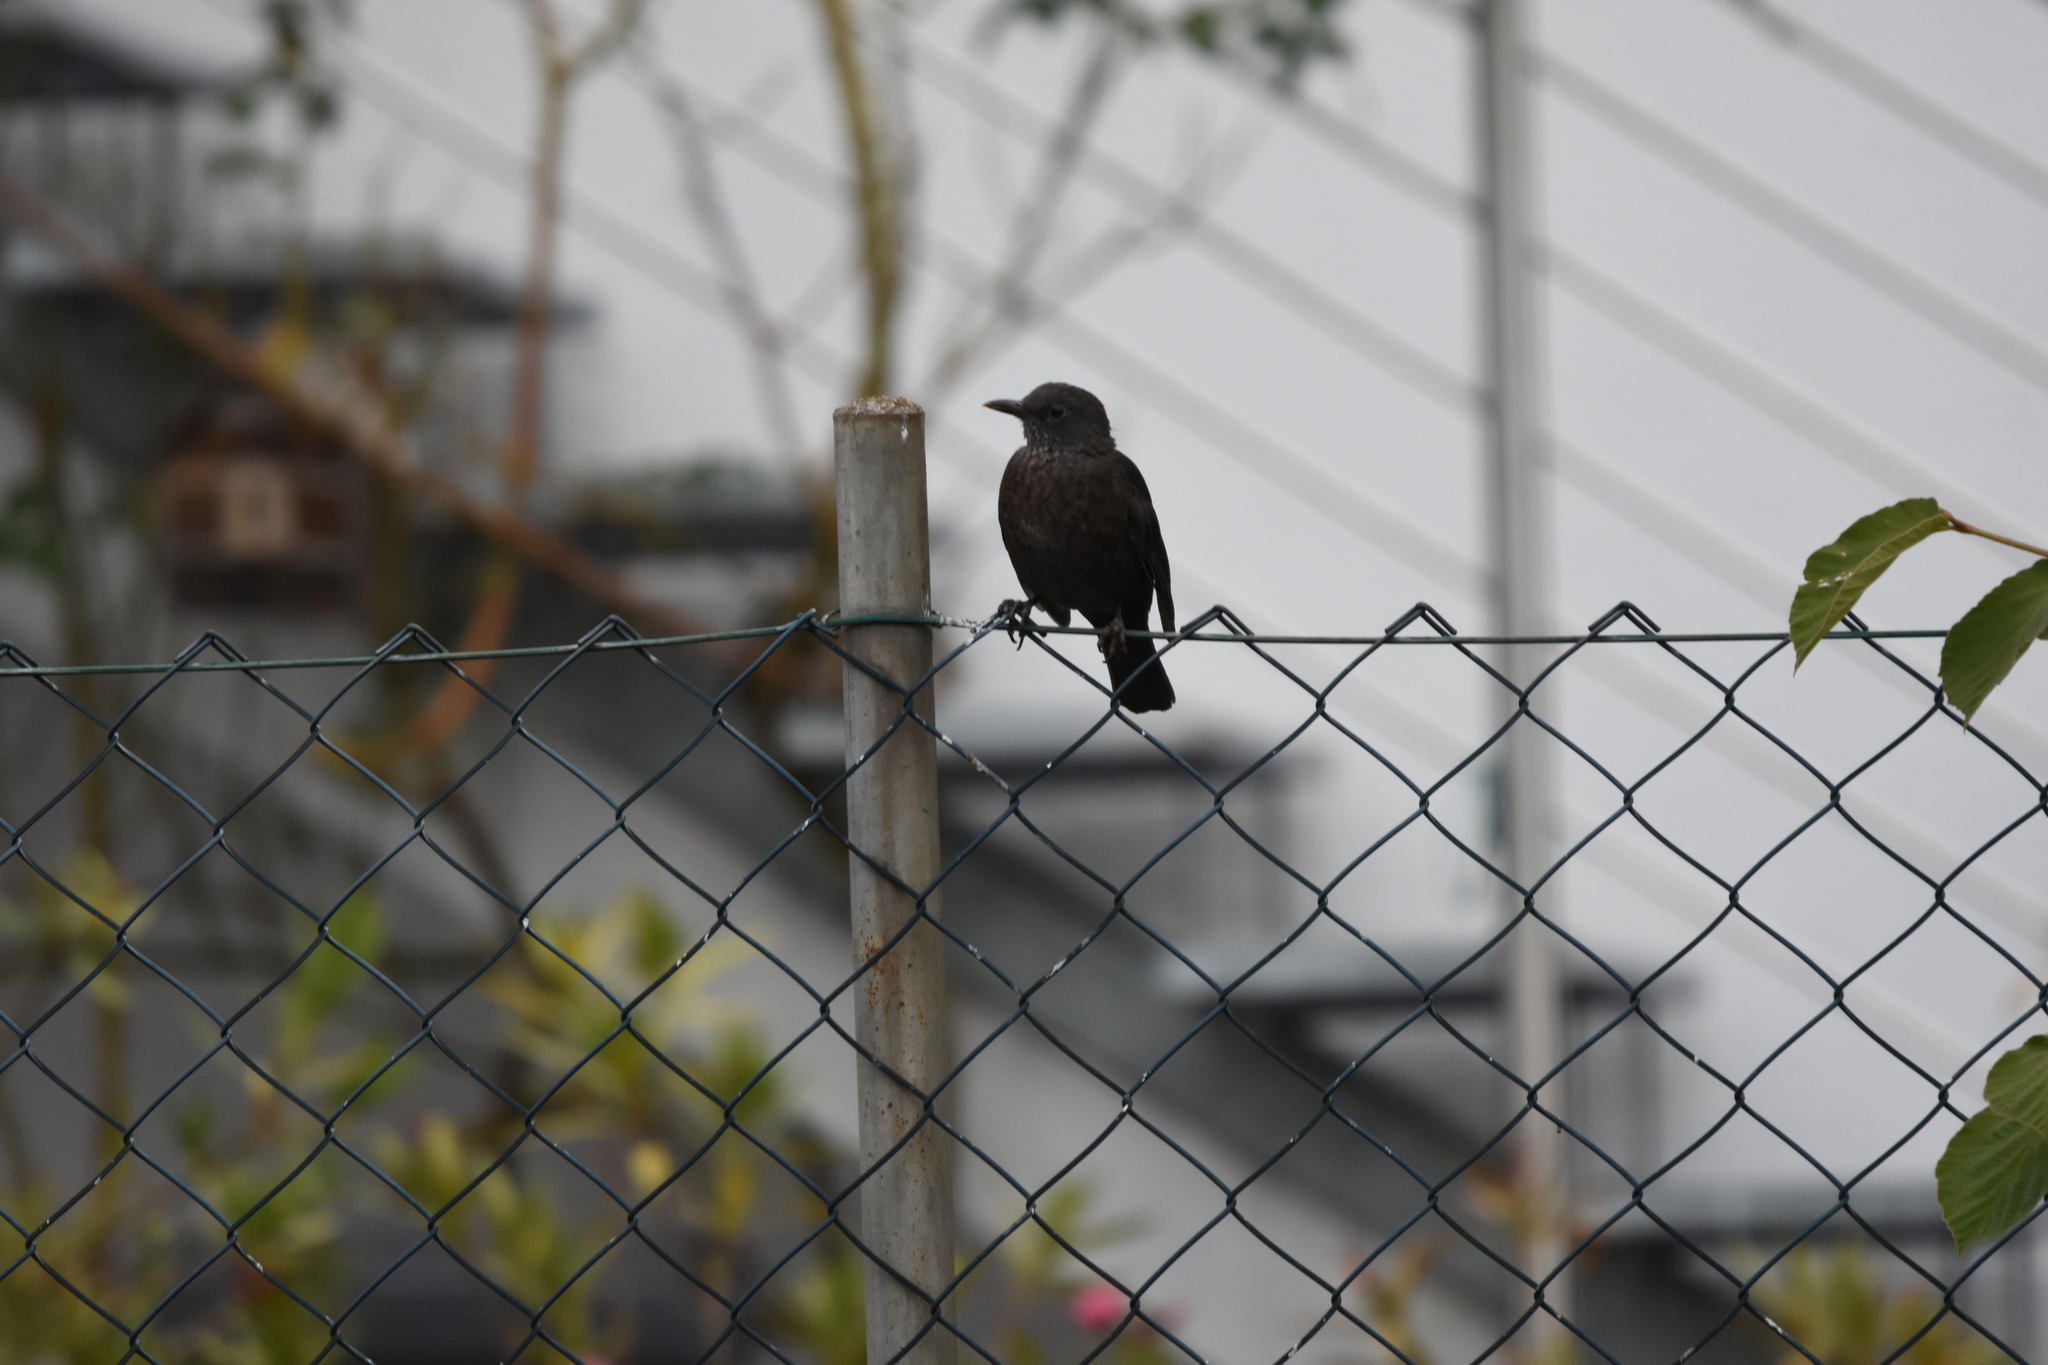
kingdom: Animalia
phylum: Chordata
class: Aves
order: Passeriformes
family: Turdidae
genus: Turdus
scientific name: Turdus merula
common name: Common blackbird
